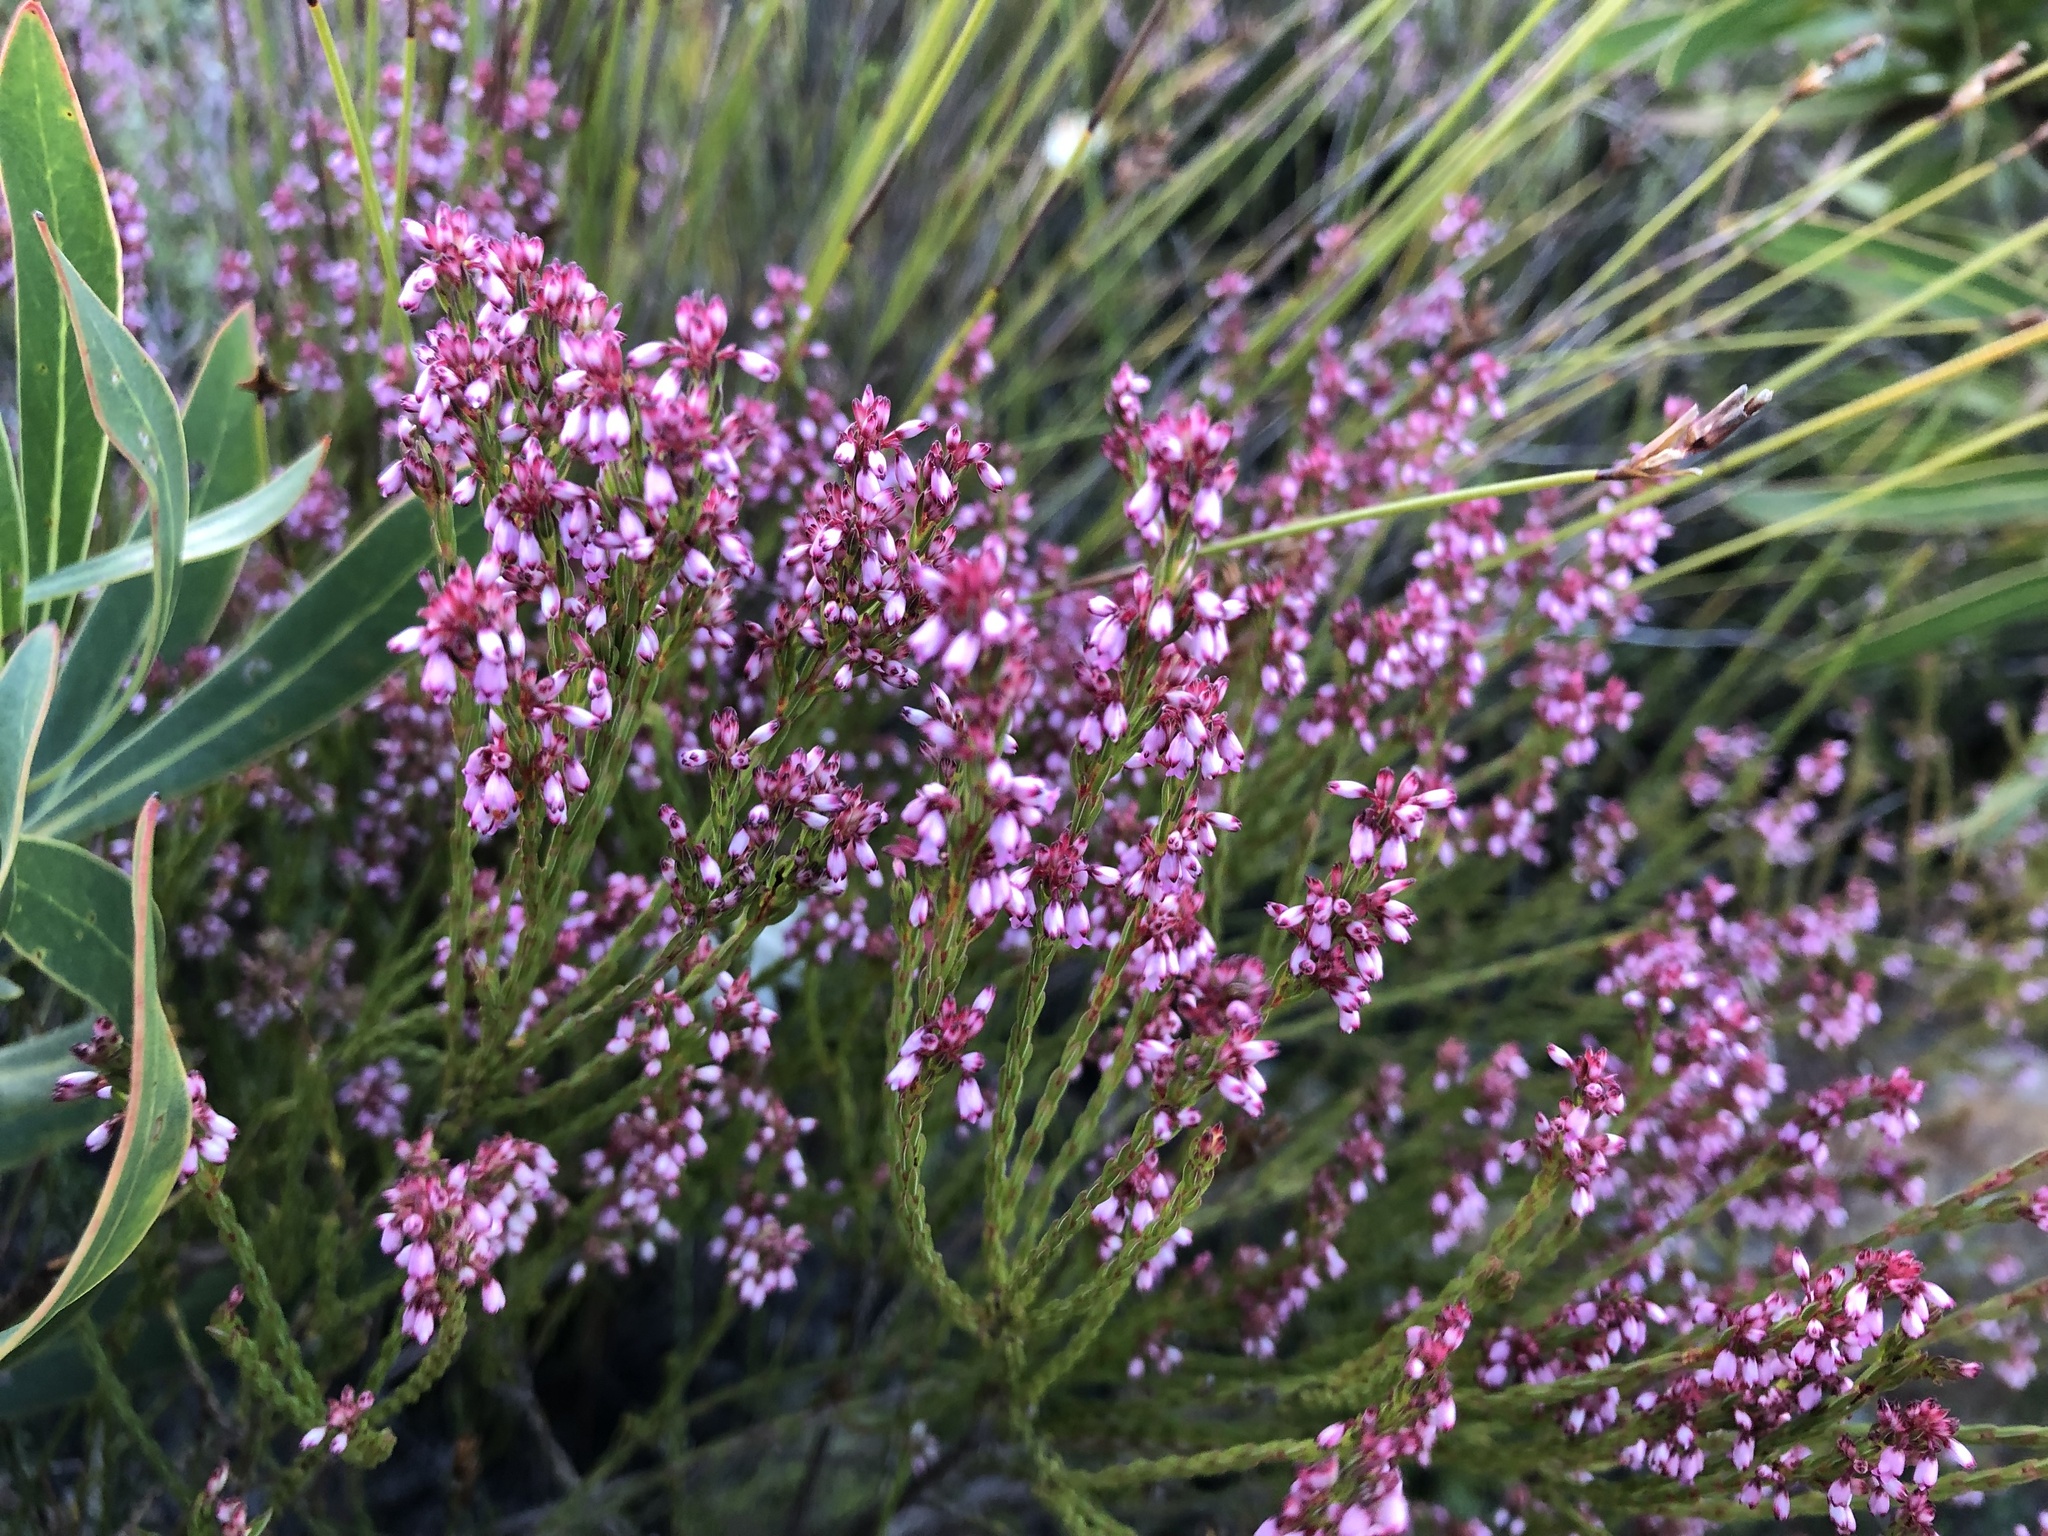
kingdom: Plantae
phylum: Tracheophyta
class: Magnoliopsida
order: Ericales
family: Ericaceae
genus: Erica
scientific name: Erica articularis
